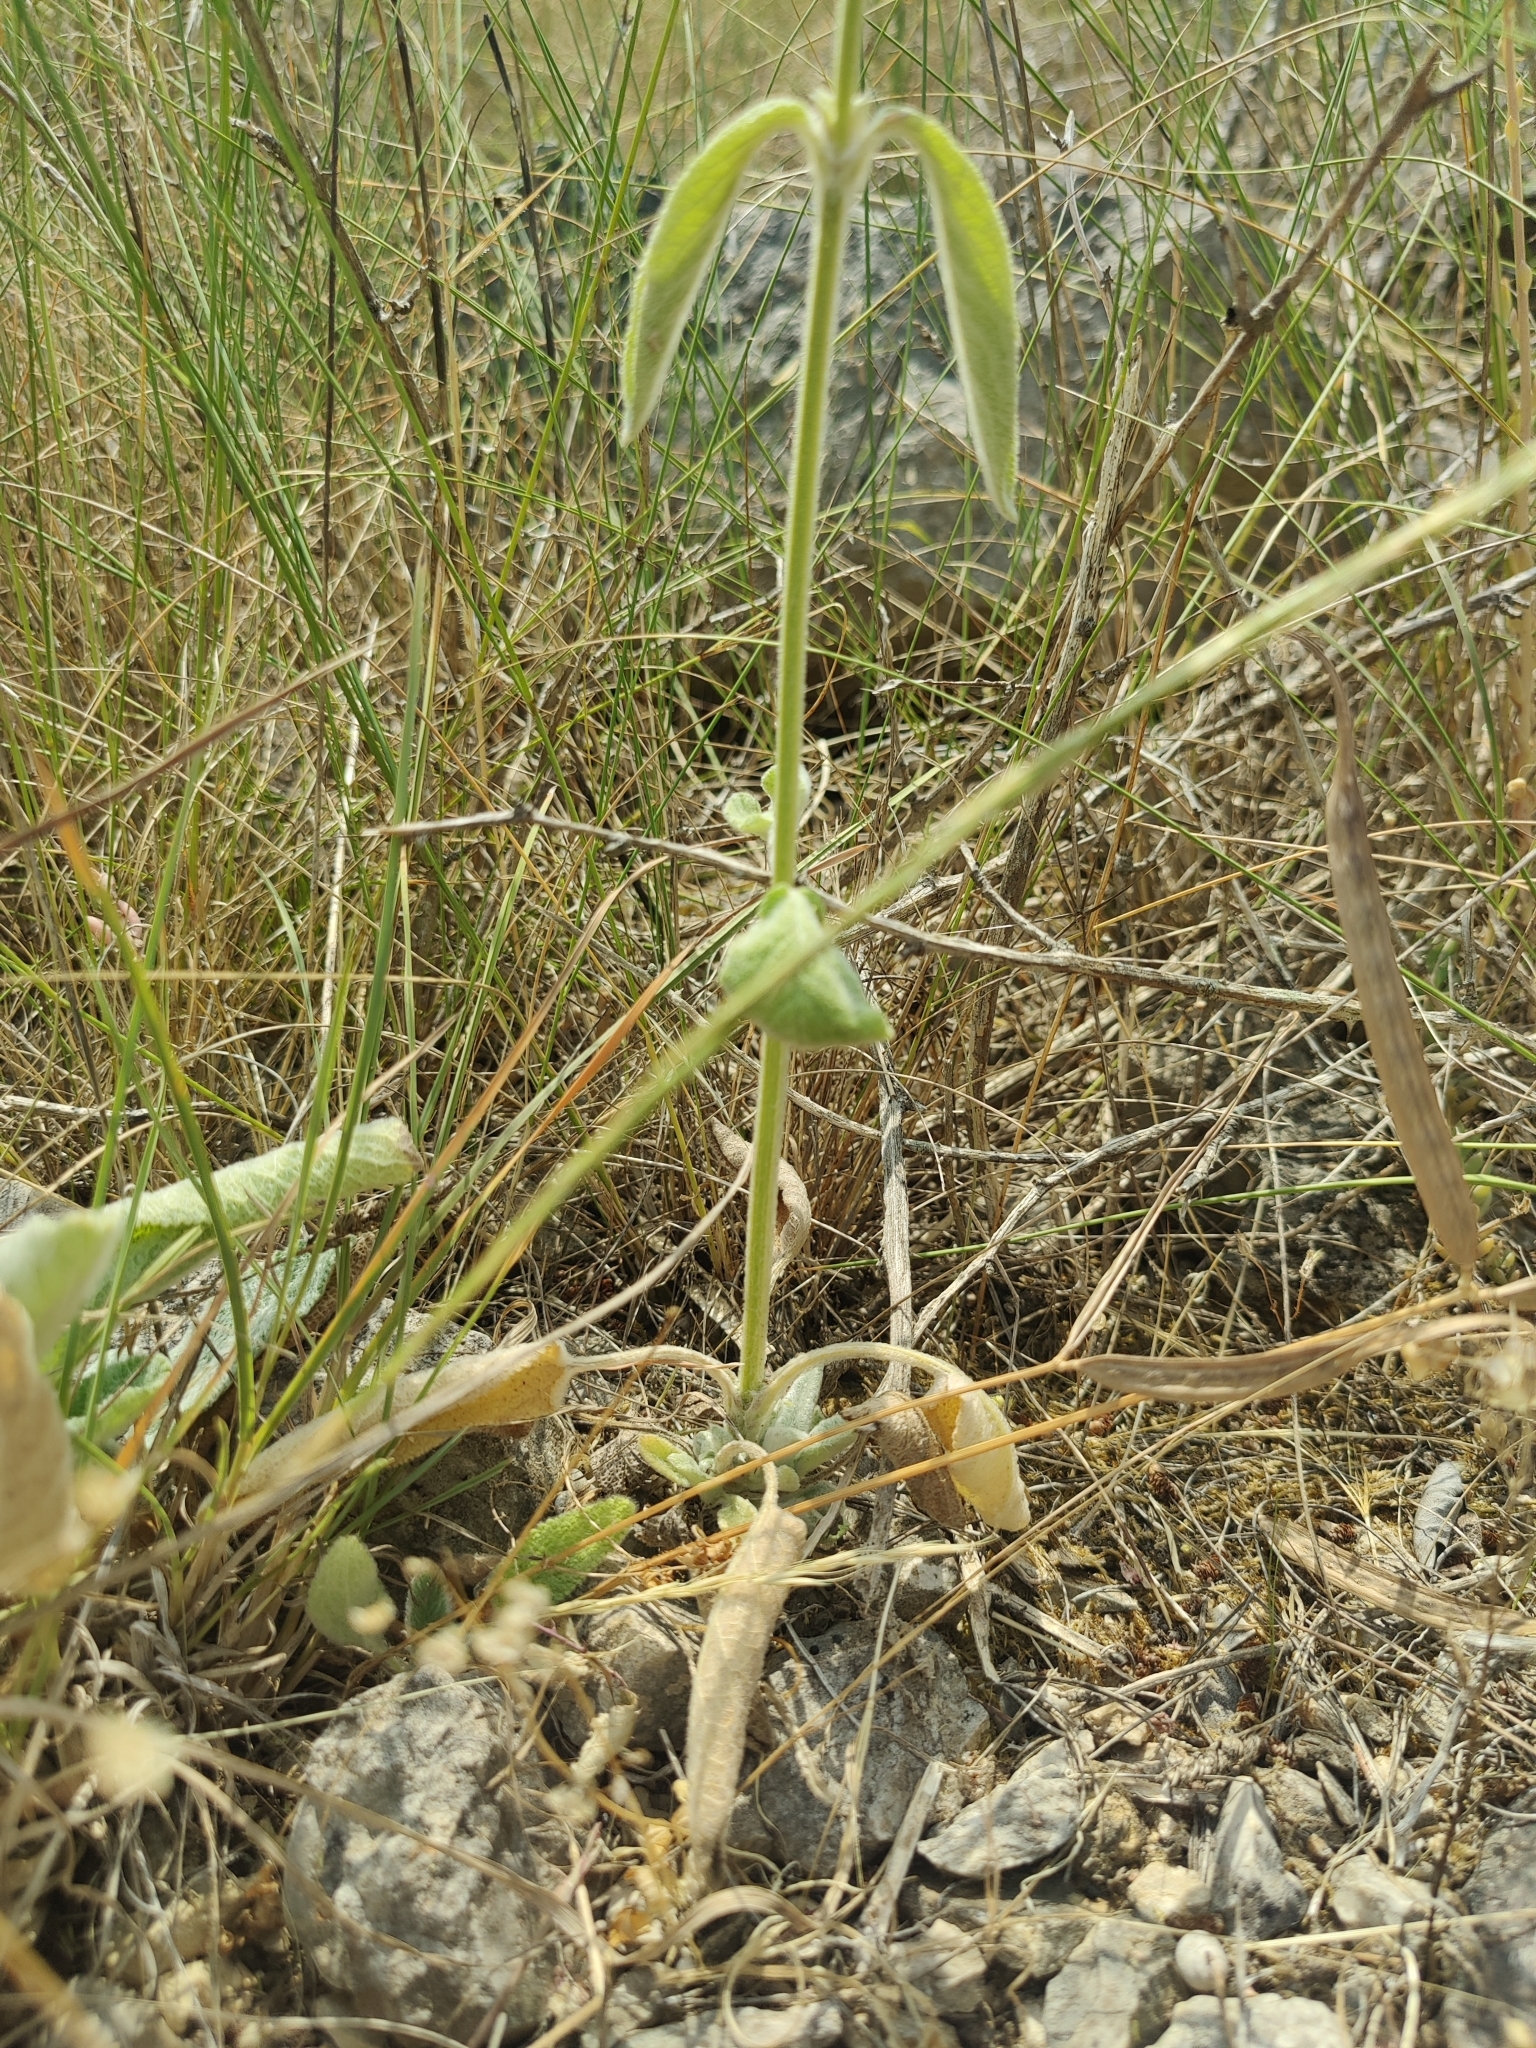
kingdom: Plantae
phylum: Tracheophyta
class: Magnoliopsida
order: Lamiales
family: Lamiaceae
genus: Stachys
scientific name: Stachys cretica
